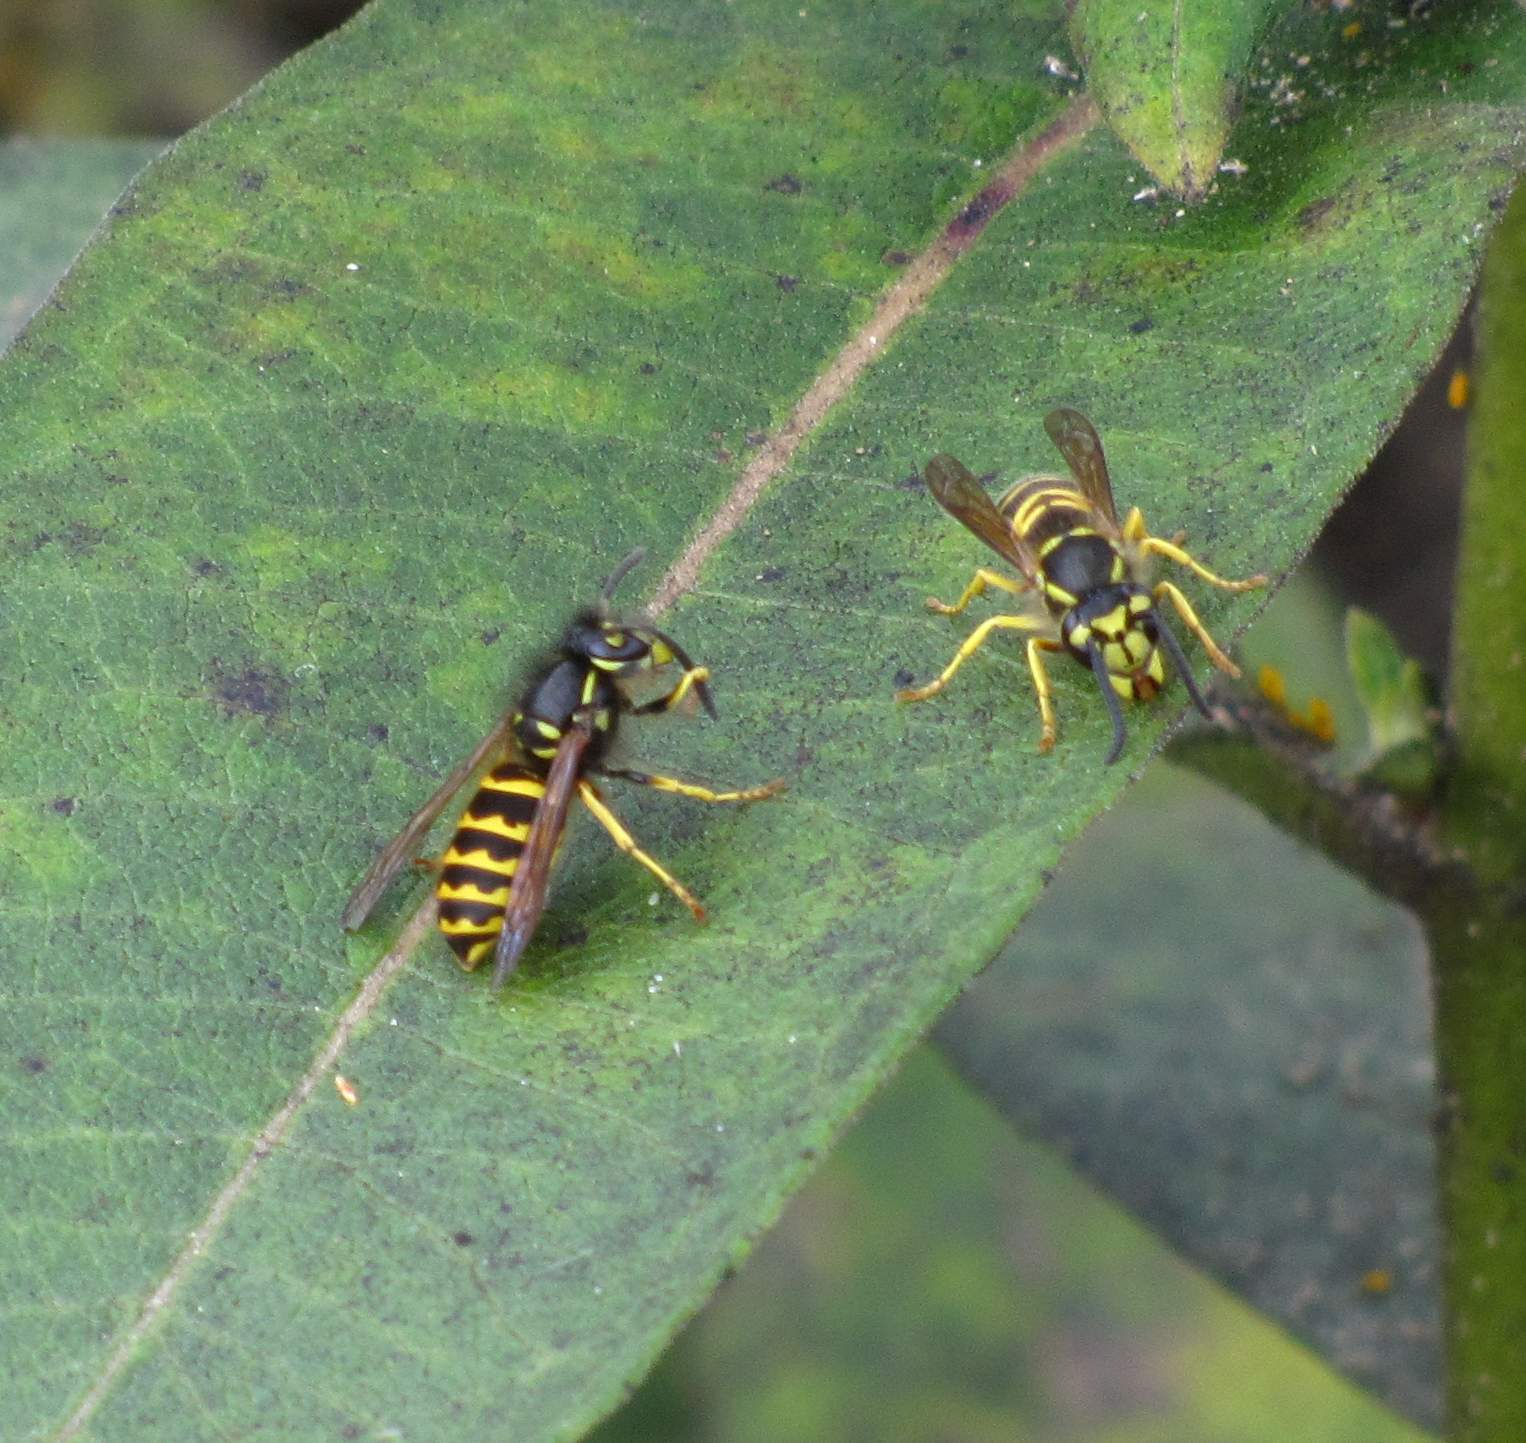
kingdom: Animalia
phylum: Arthropoda
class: Insecta
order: Hymenoptera
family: Vespidae
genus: Vespula
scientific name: Vespula alascensis
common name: Alaska yellowjacket
